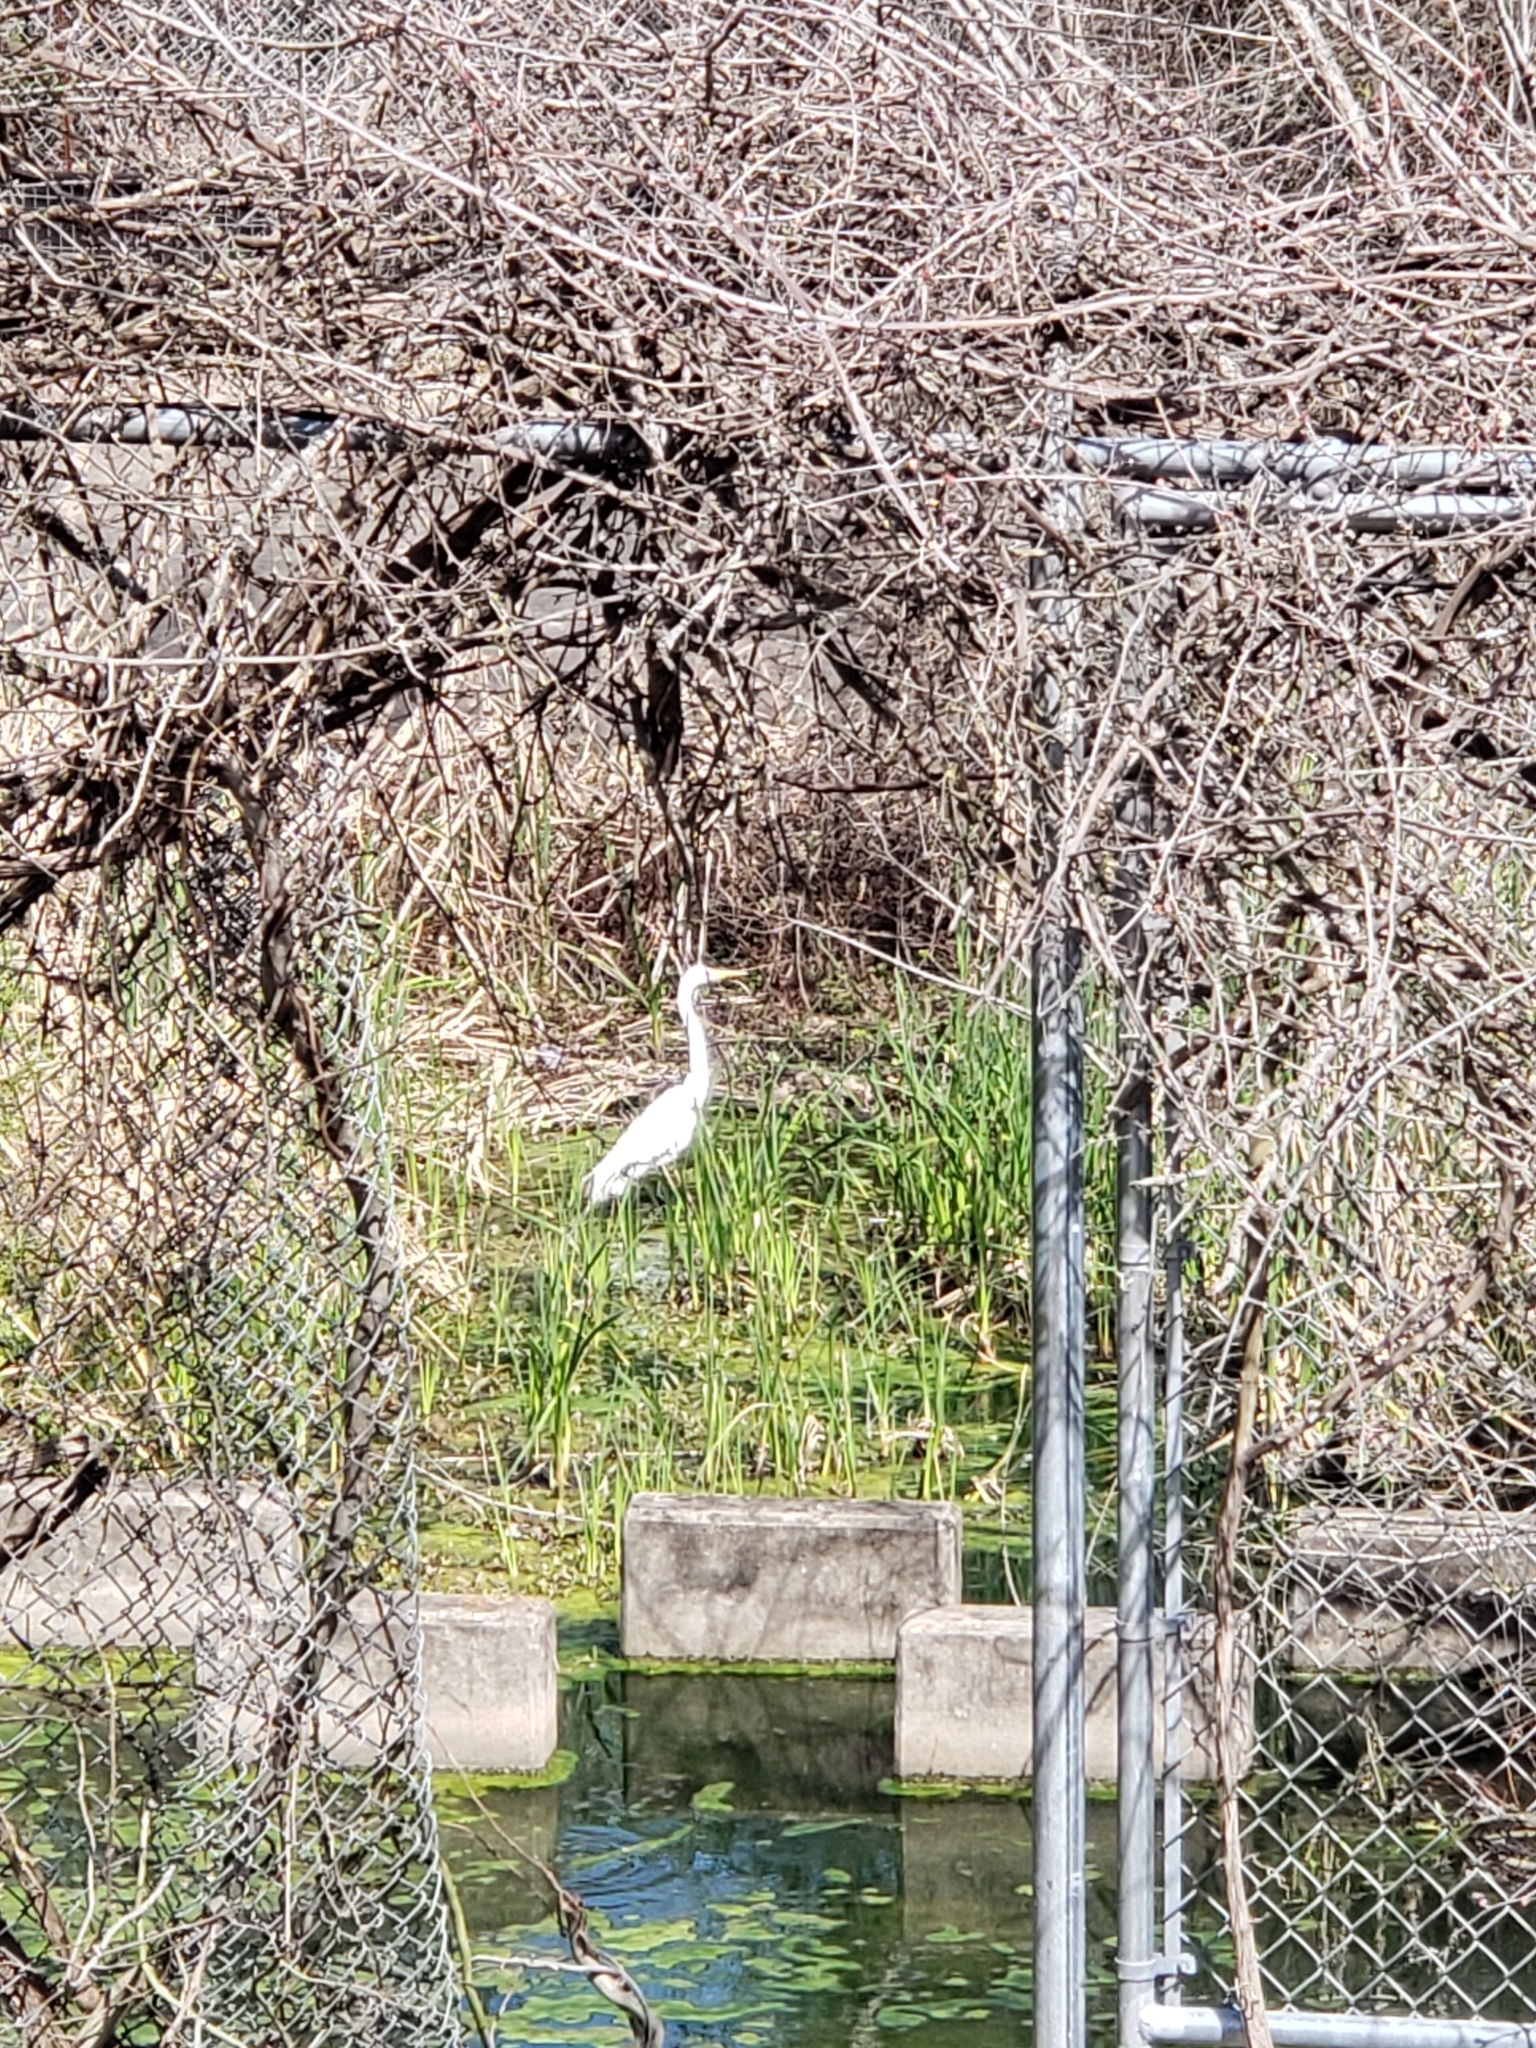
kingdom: Animalia
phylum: Chordata
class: Aves
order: Pelecaniformes
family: Ardeidae
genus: Ardea
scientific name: Ardea alba
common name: Great egret
